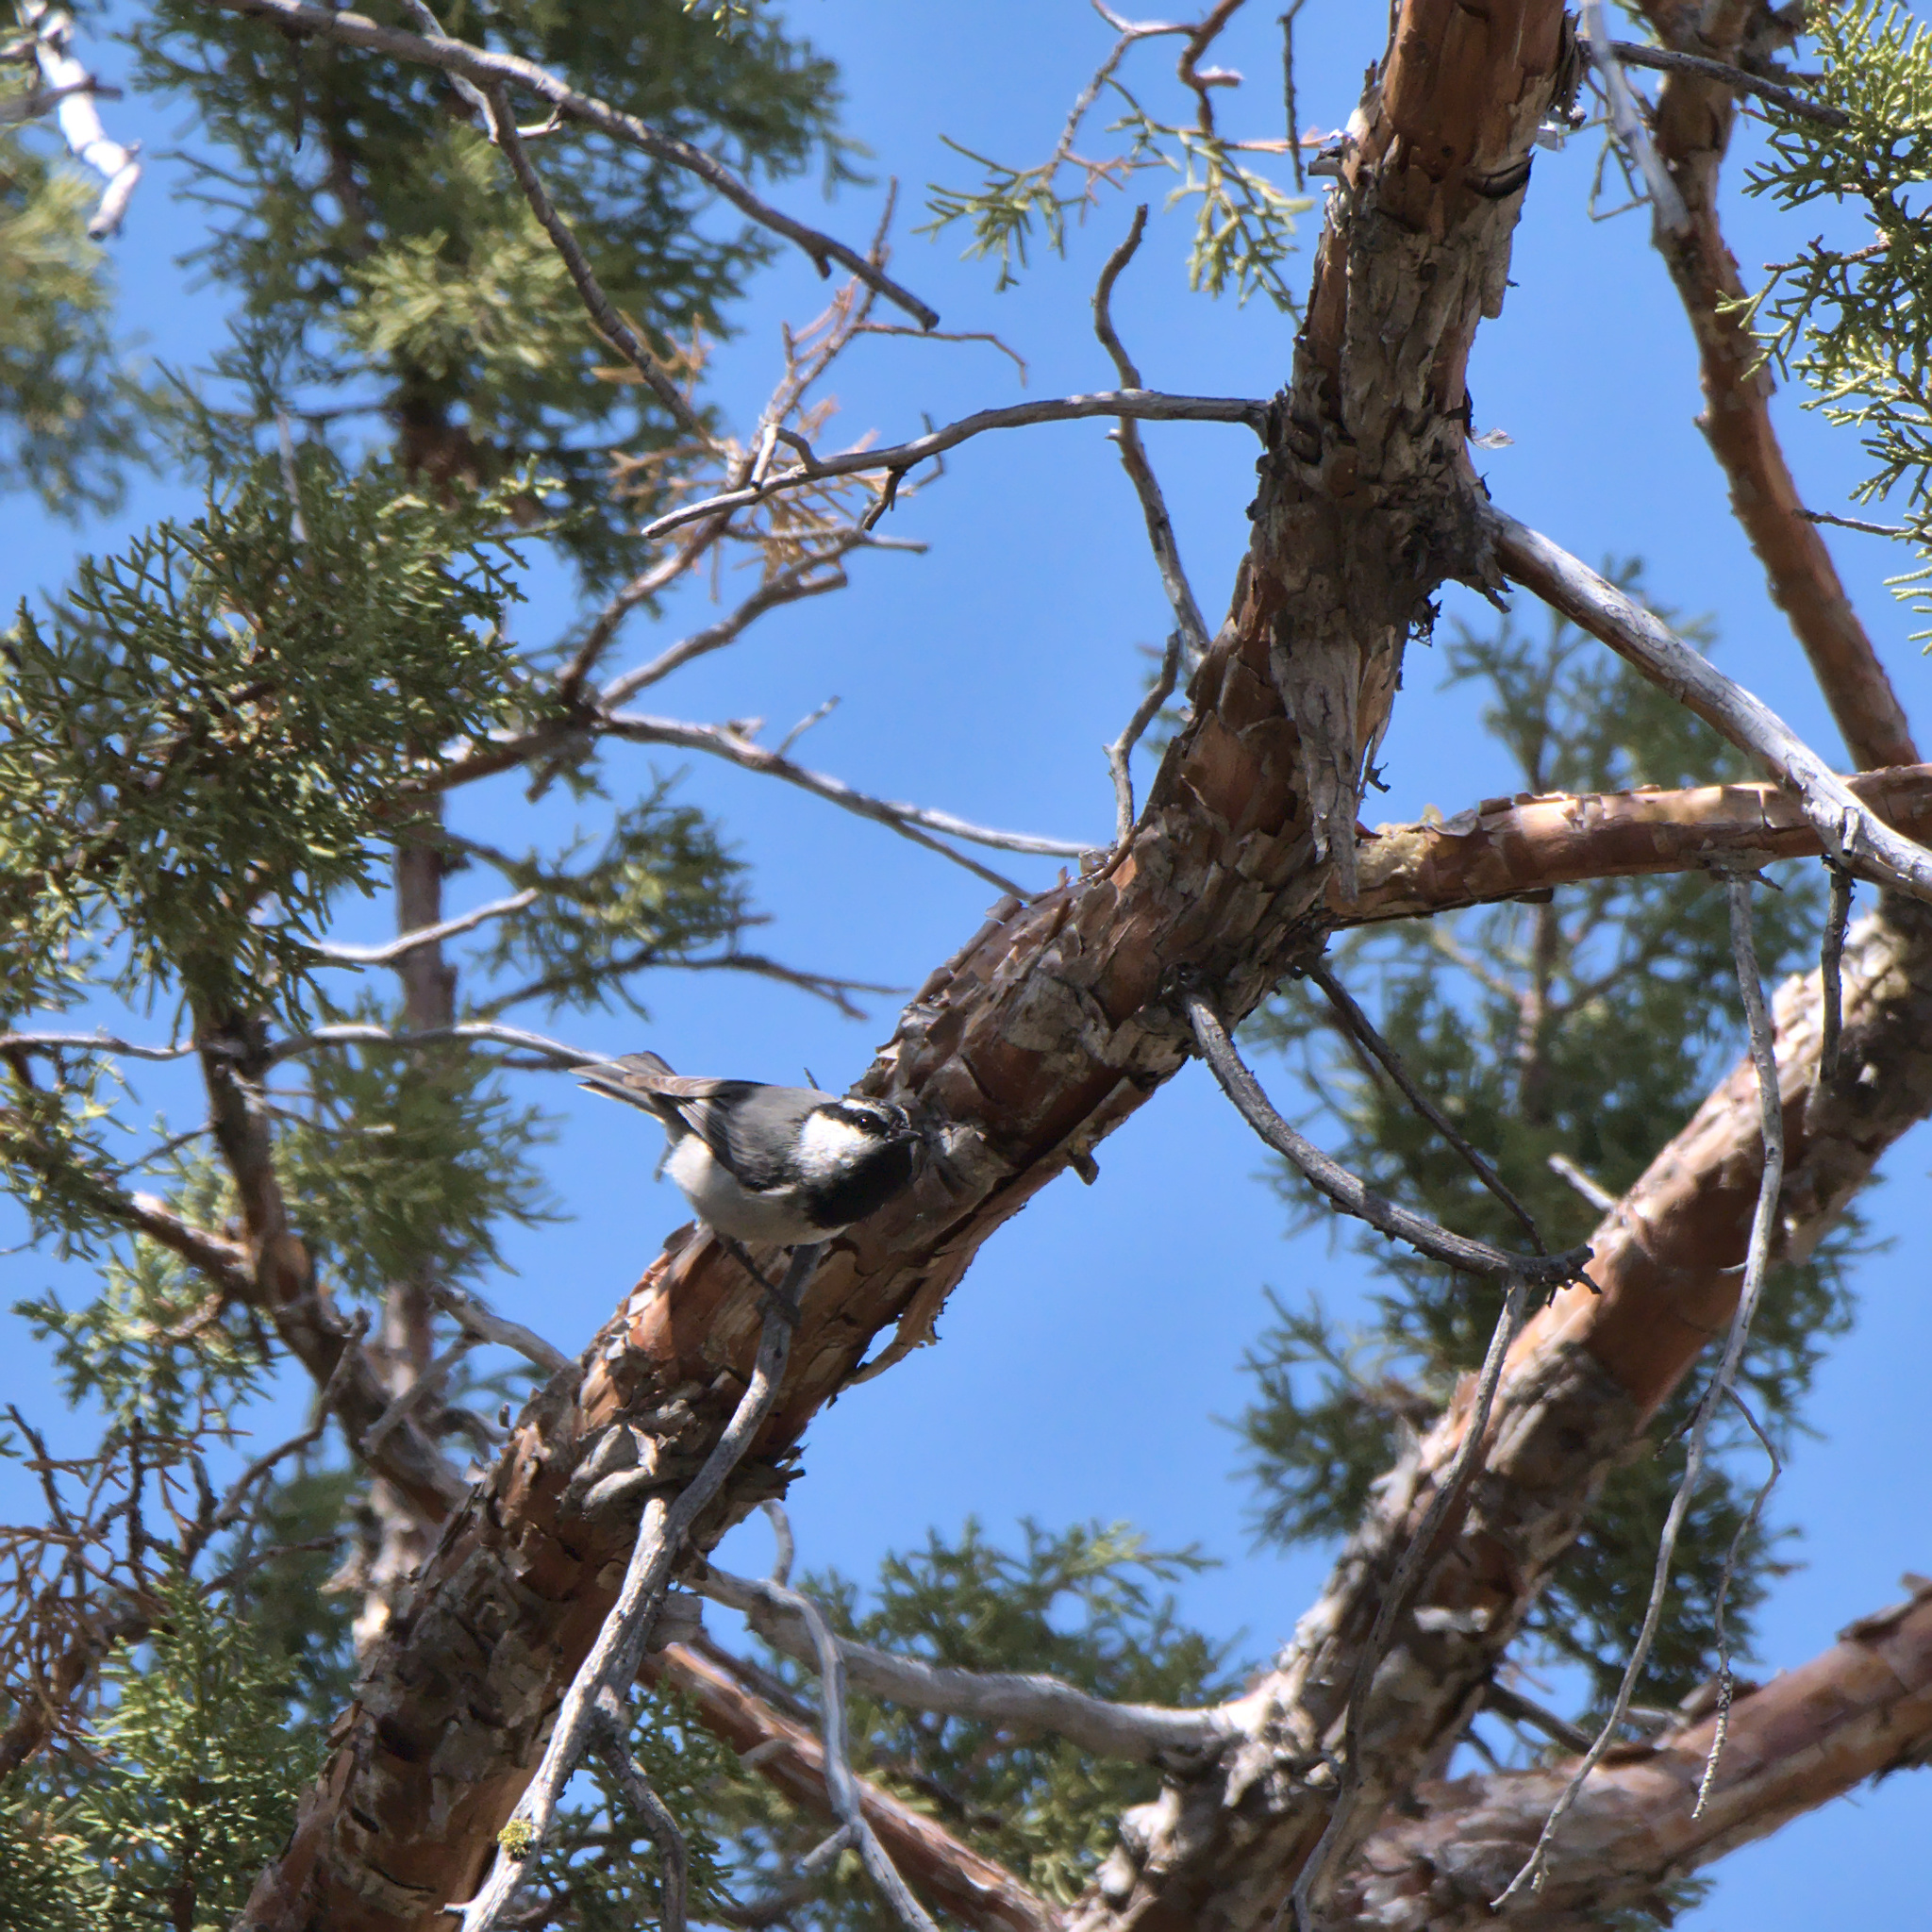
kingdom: Animalia
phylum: Chordata
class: Aves
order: Passeriformes
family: Paridae
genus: Poecile
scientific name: Poecile gambeli
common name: Mountain chickadee
